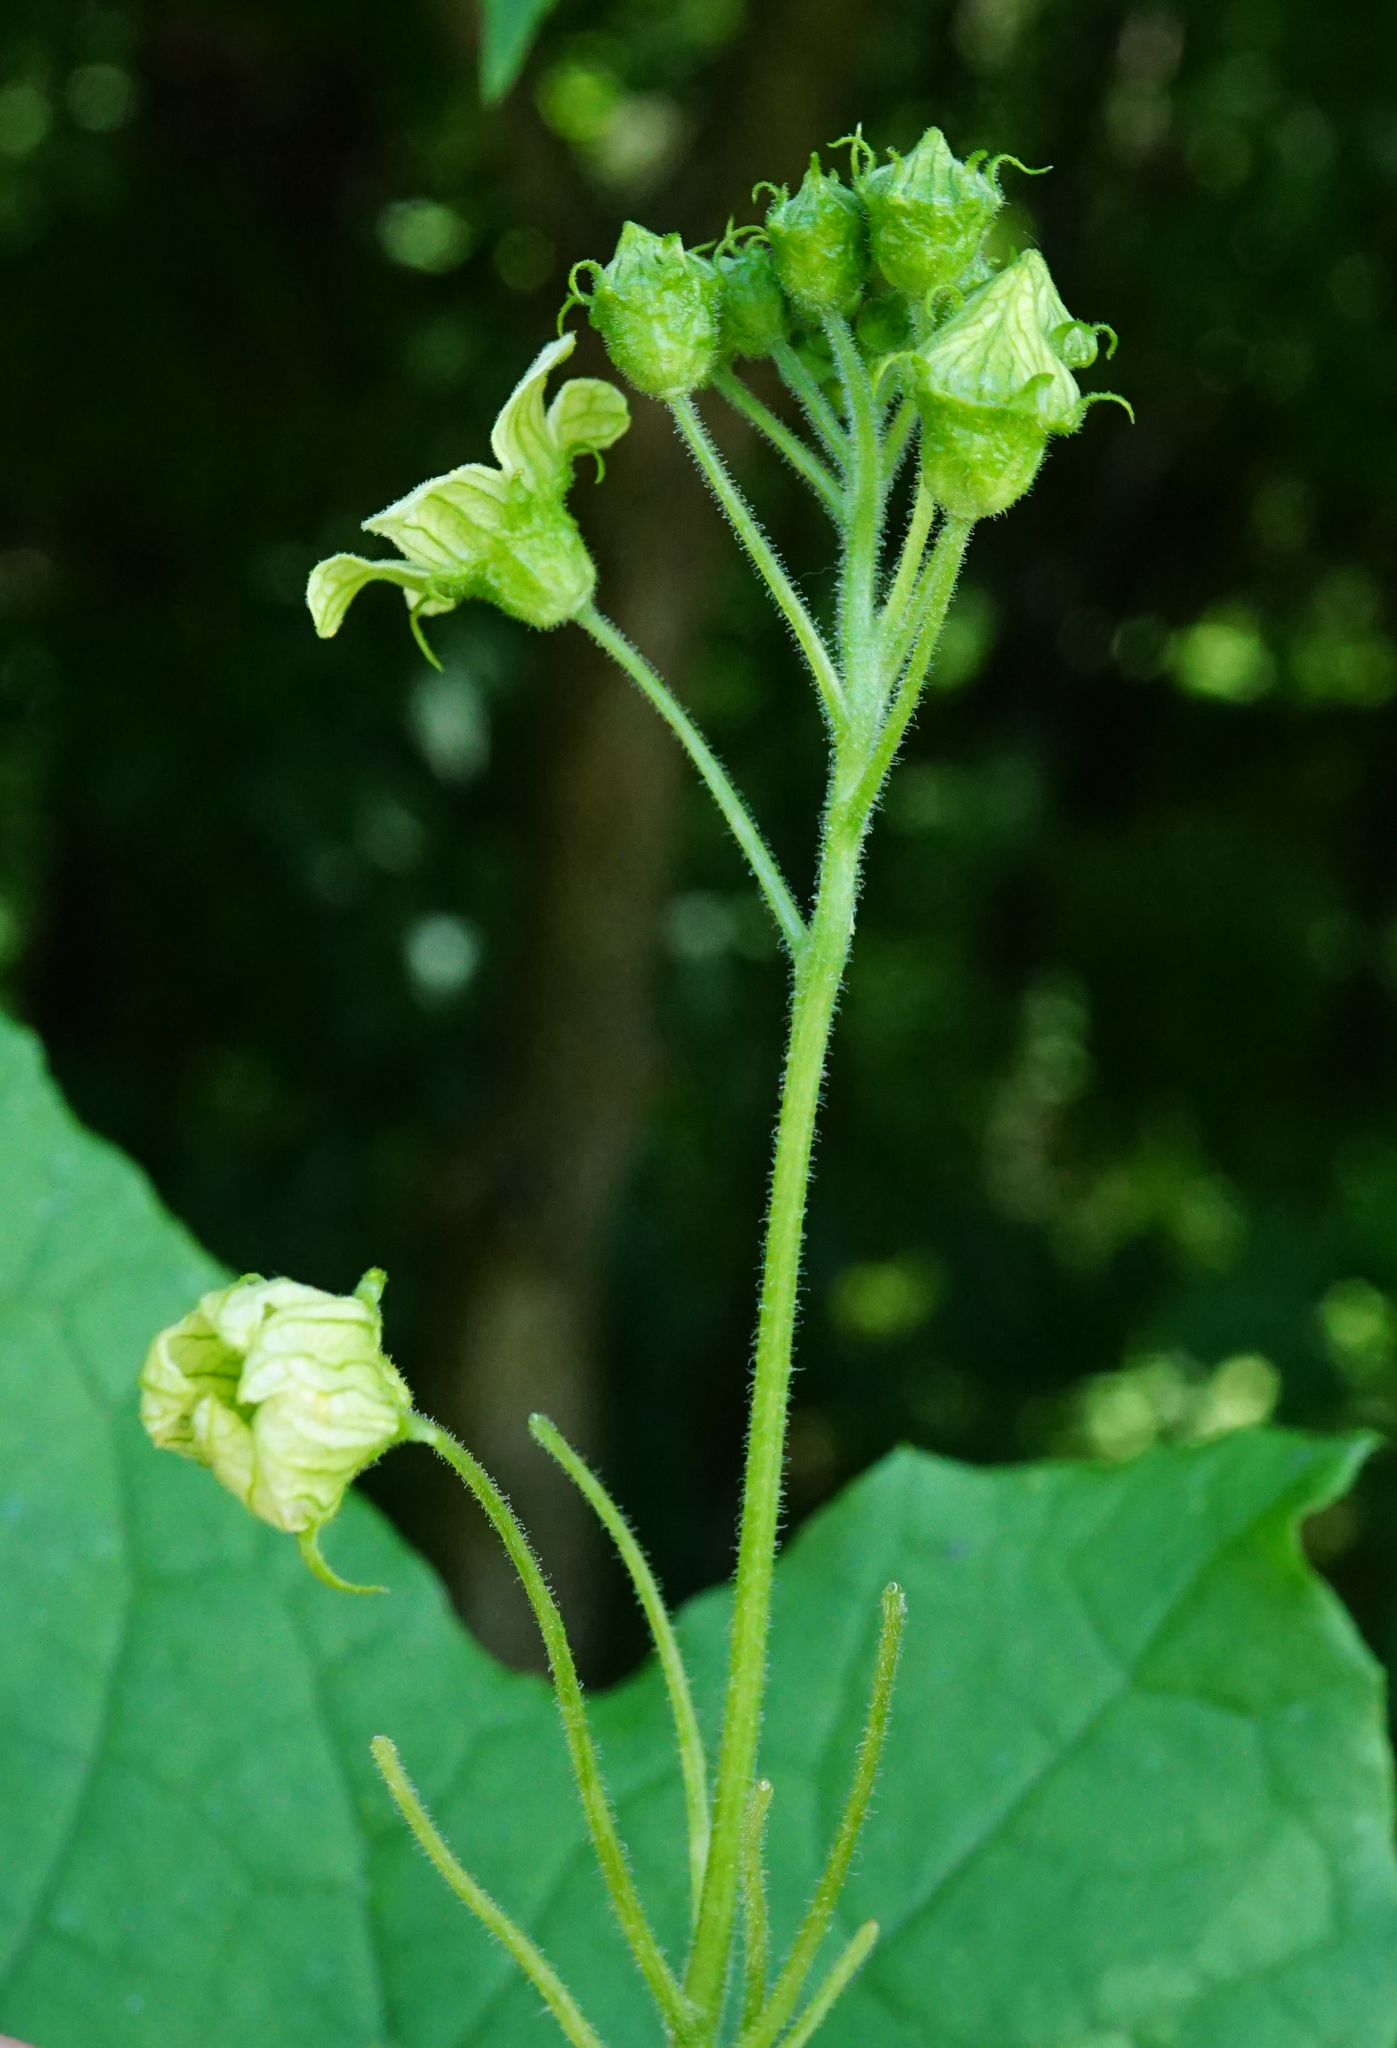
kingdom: Plantae
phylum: Tracheophyta
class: Magnoliopsida
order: Cucurbitales
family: Cucurbitaceae
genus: Bryonia
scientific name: Bryonia dioica
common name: White bryony
